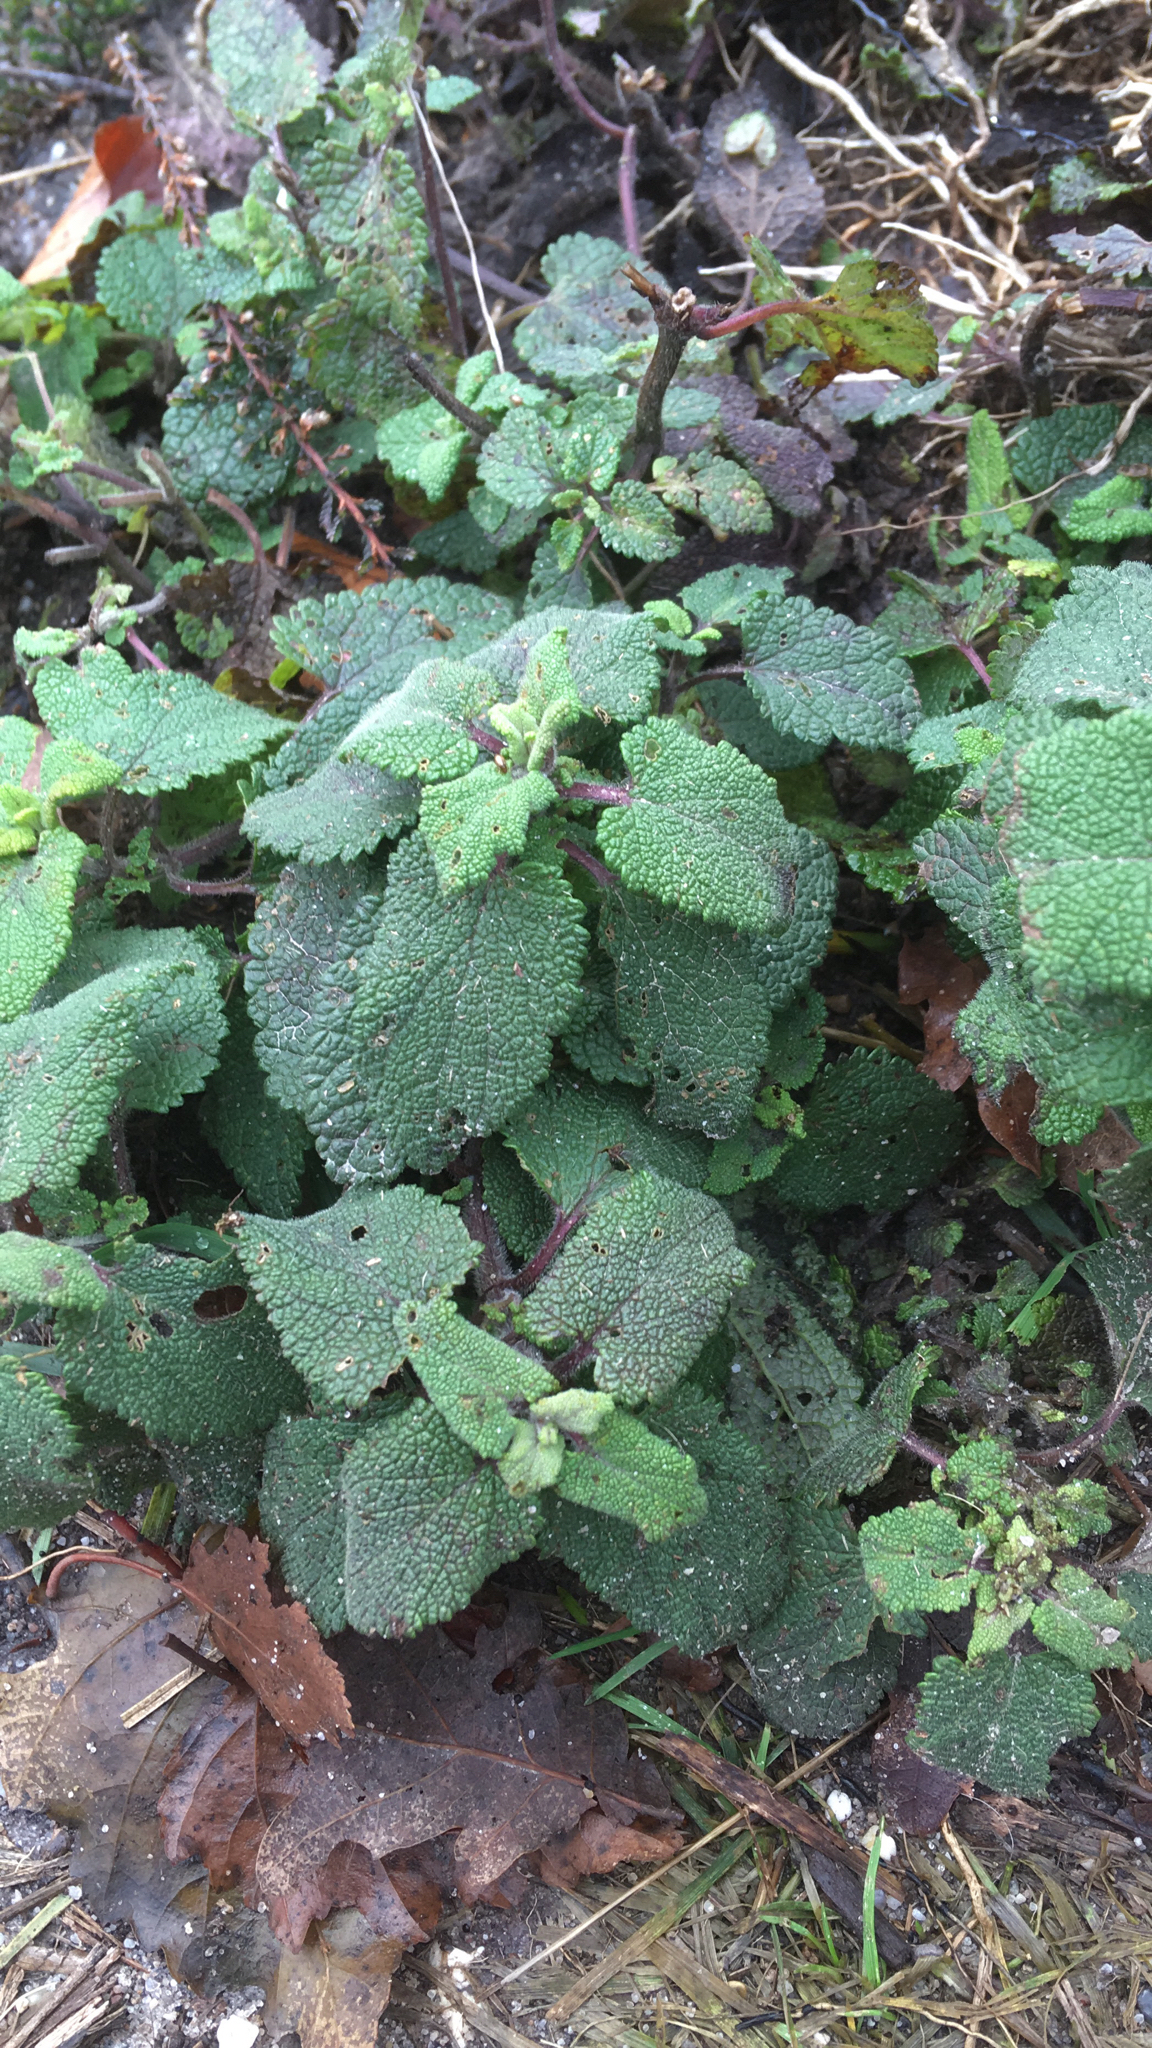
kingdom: Plantae
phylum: Tracheophyta
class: Magnoliopsida
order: Lamiales
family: Lamiaceae
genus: Teucrium
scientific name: Teucrium scorodonia
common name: Woodland germander
